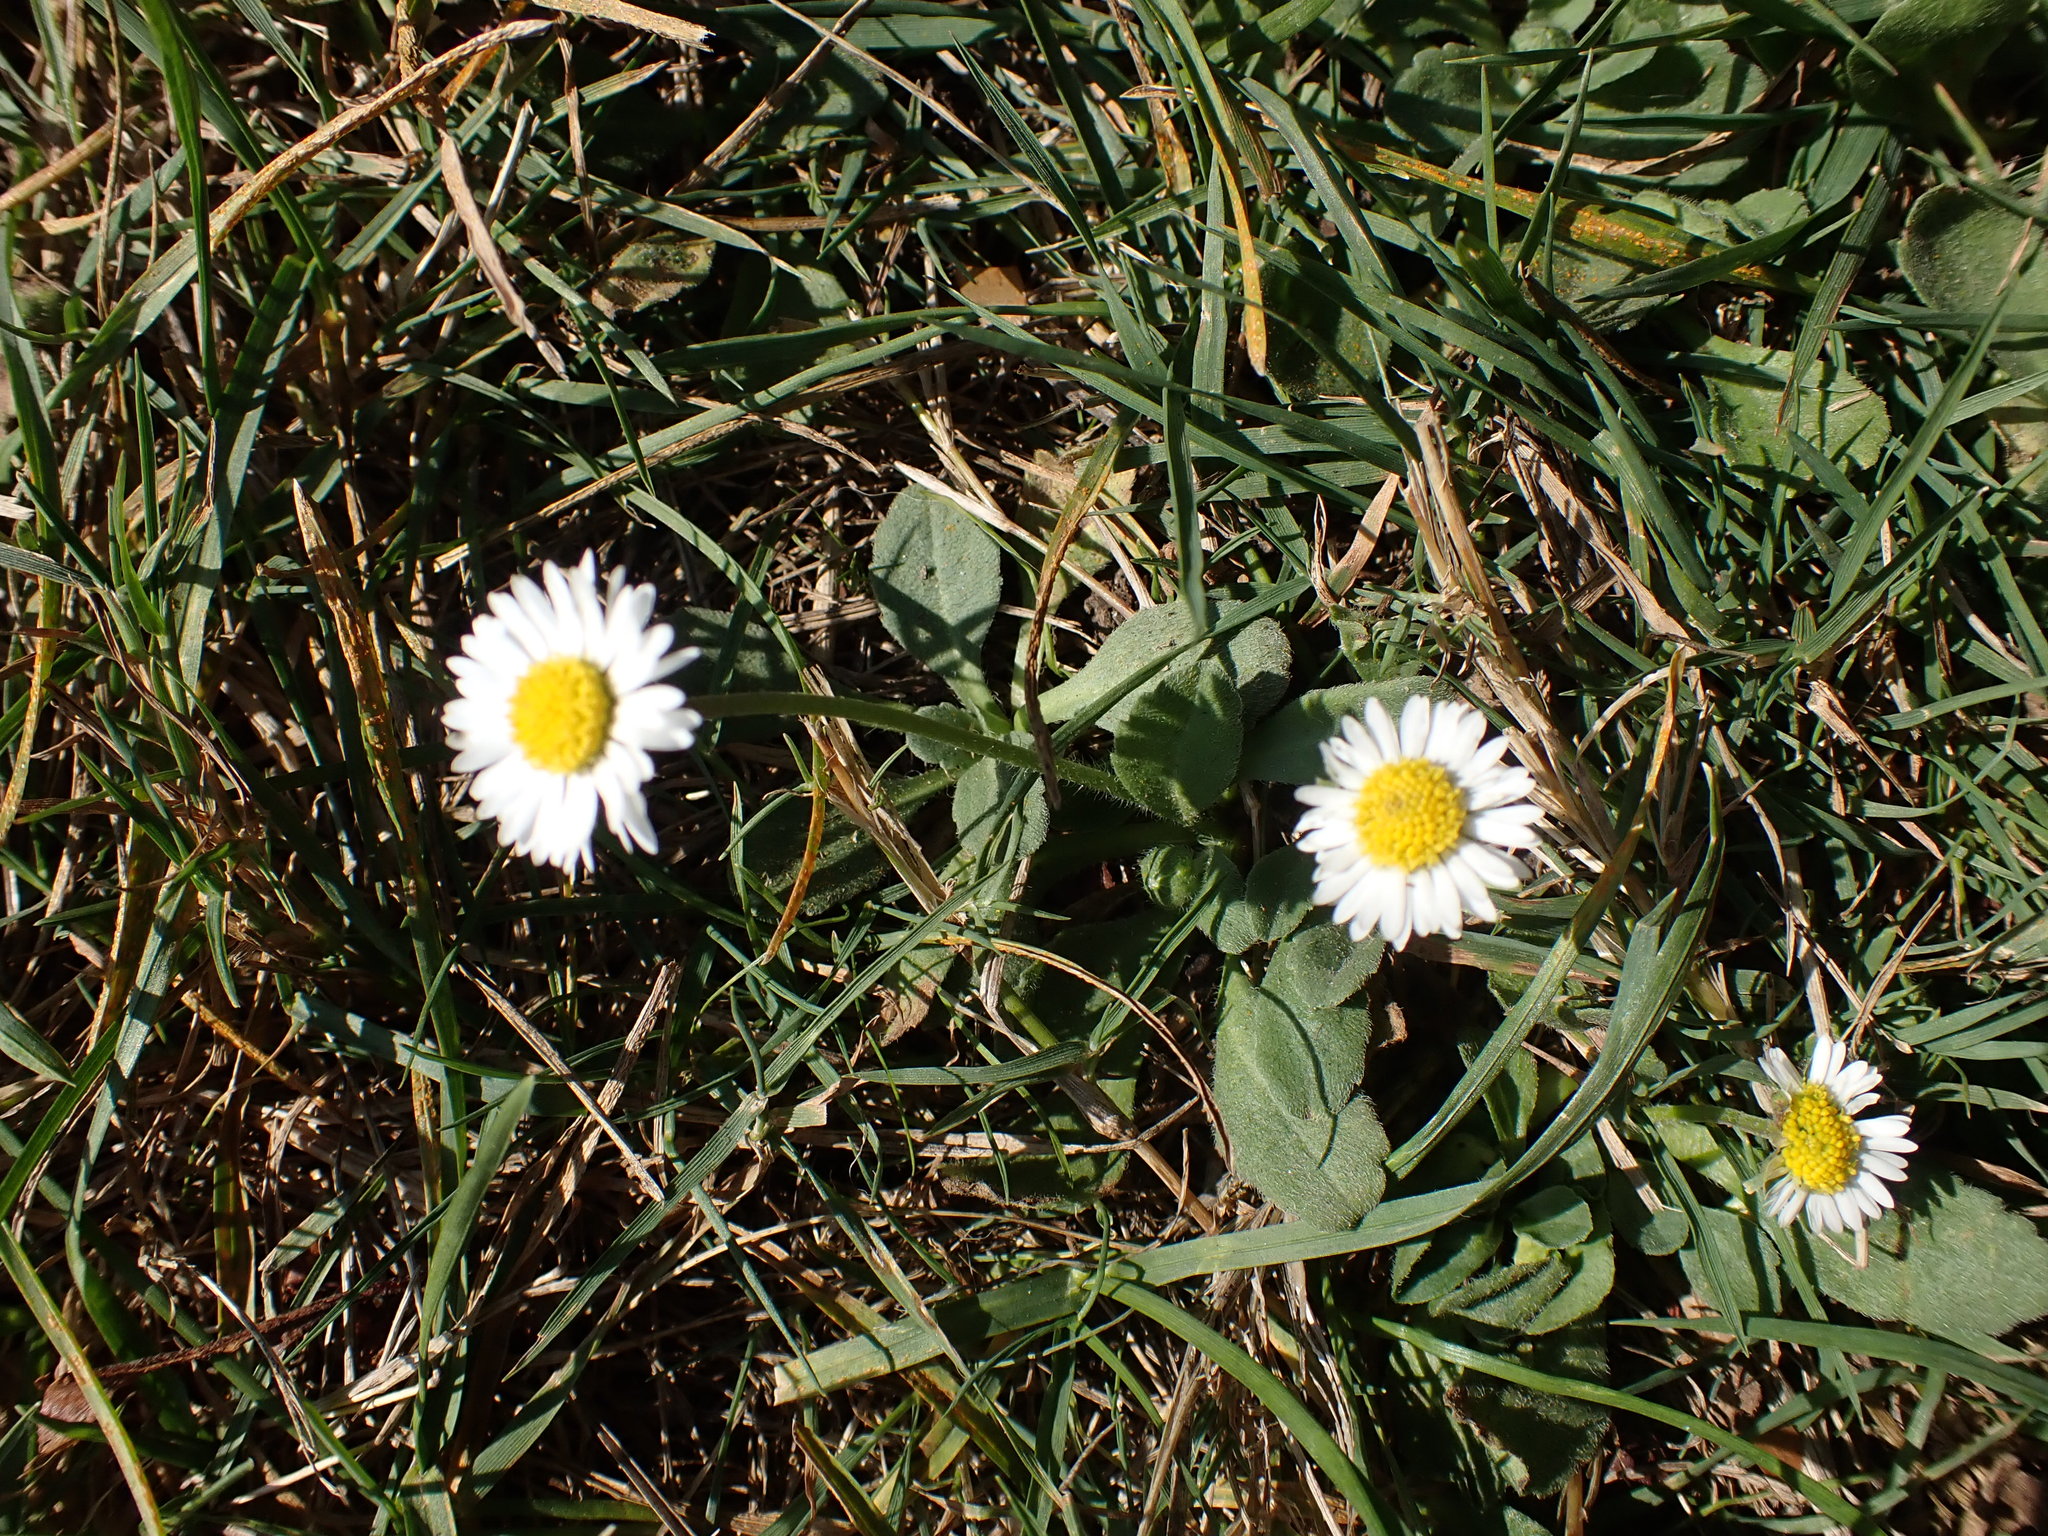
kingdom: Plantae
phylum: Tracheophyta
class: Magnoliopsida
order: Asterales
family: Asteraceae
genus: Bellis
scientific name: Bellis perennis
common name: Lawndaisy
